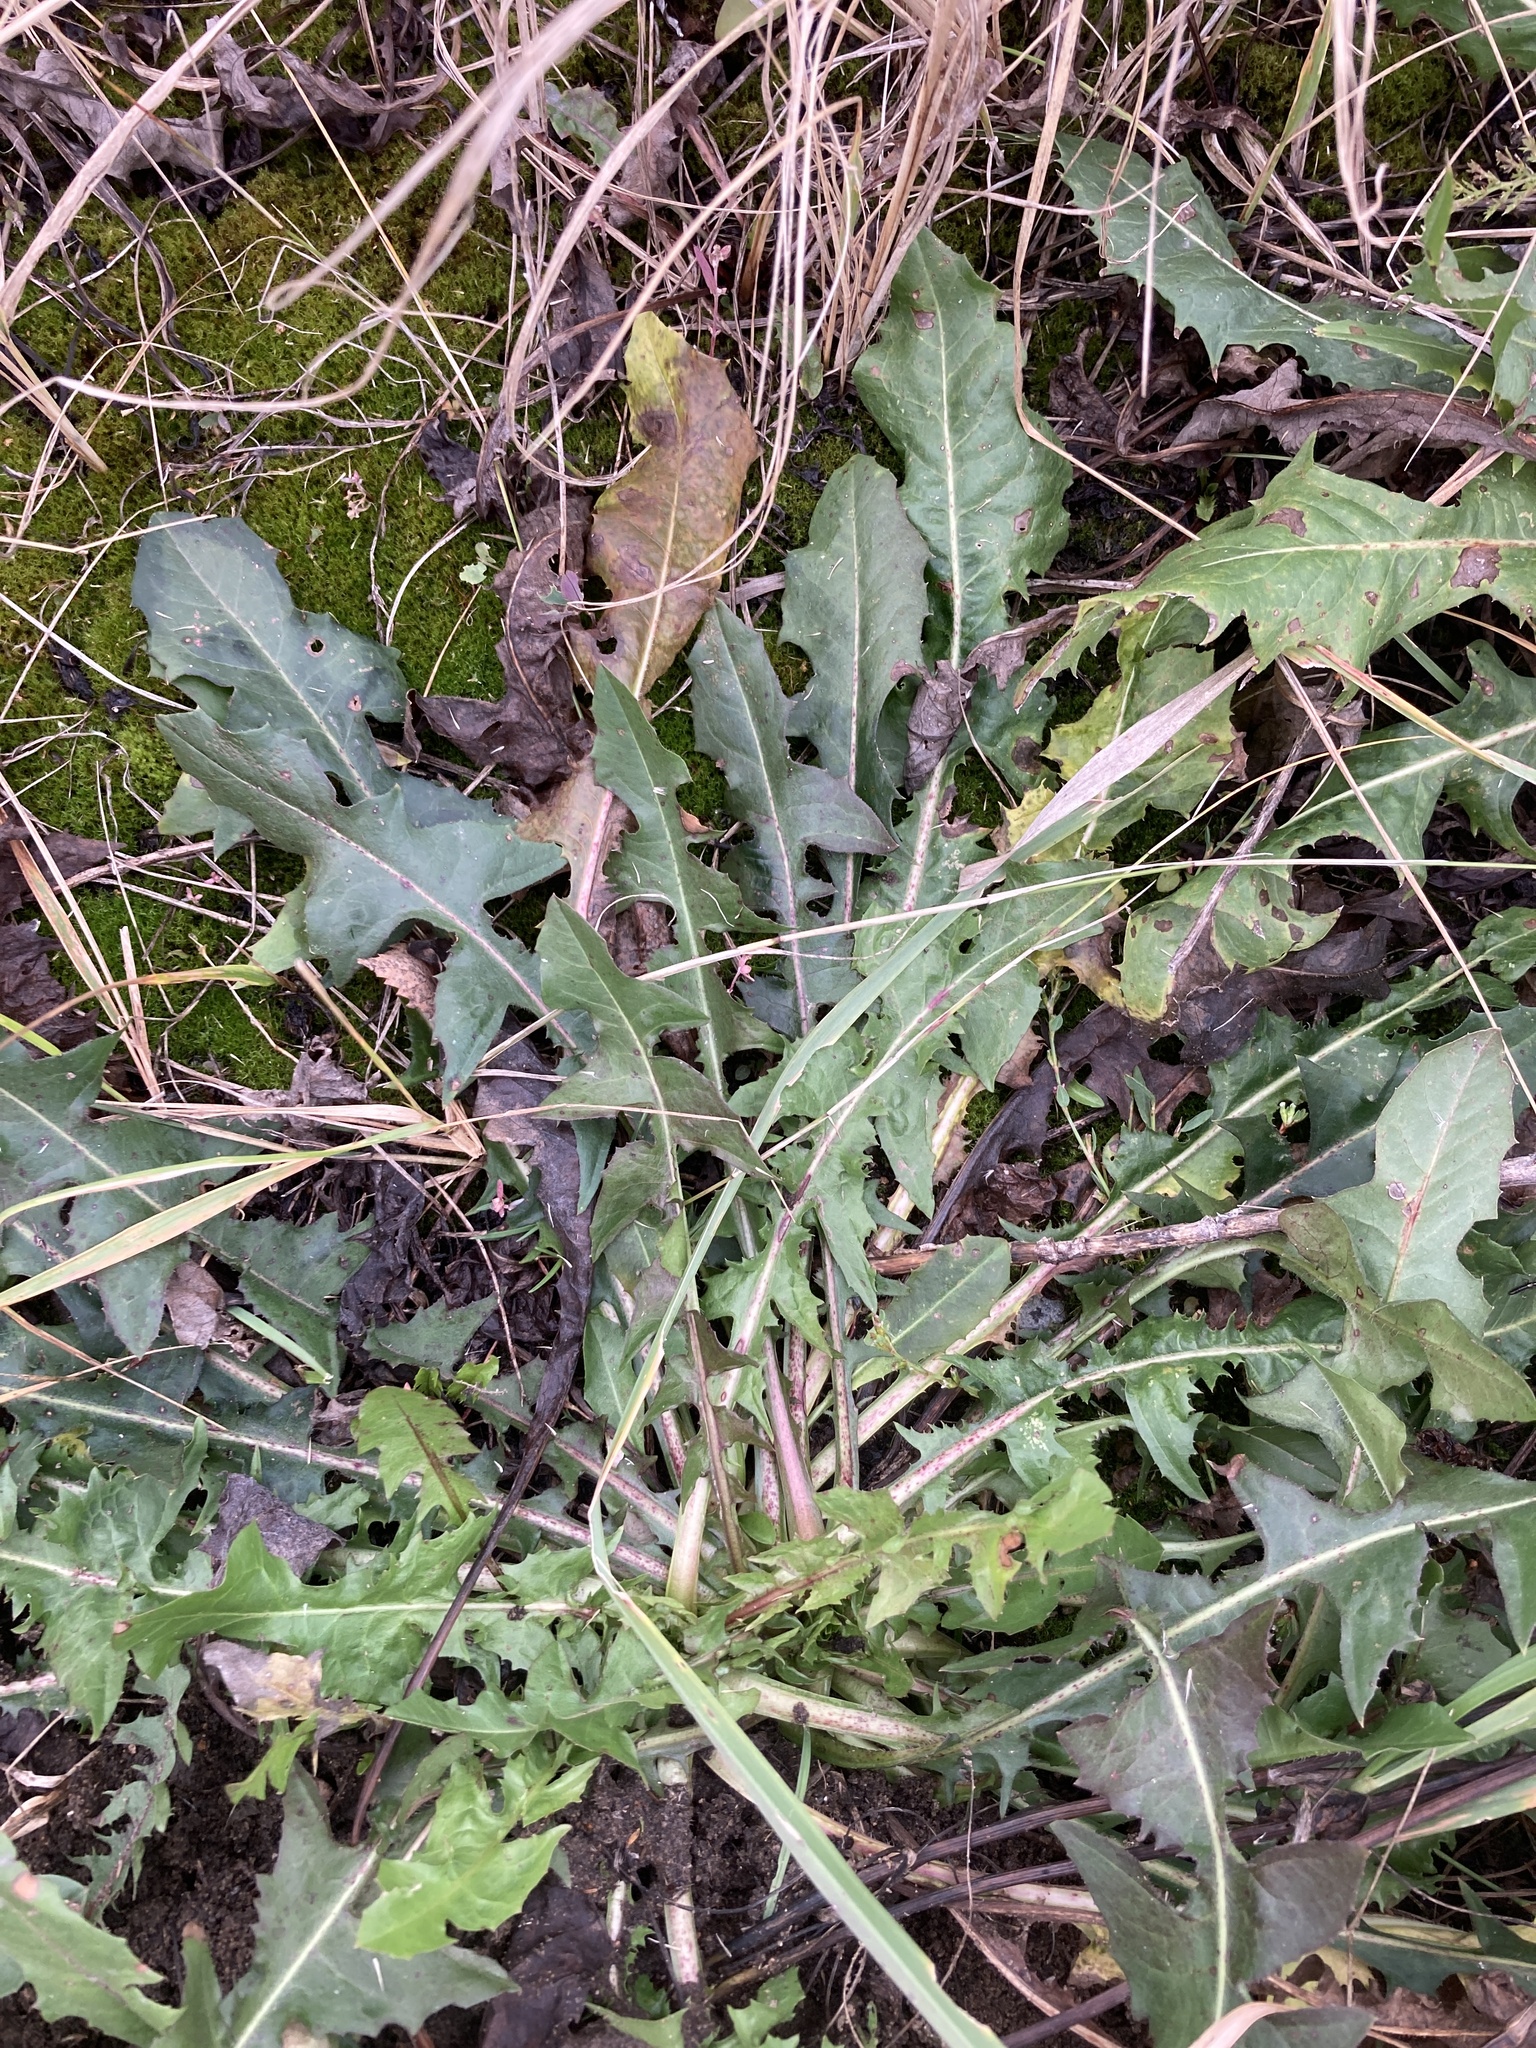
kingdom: Plantae
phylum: Tracheophyta
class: Magnoliopsida
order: Asterales
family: Asteraceae
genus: Taraxacum
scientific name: Taraxacum officinale
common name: Common dandelion
